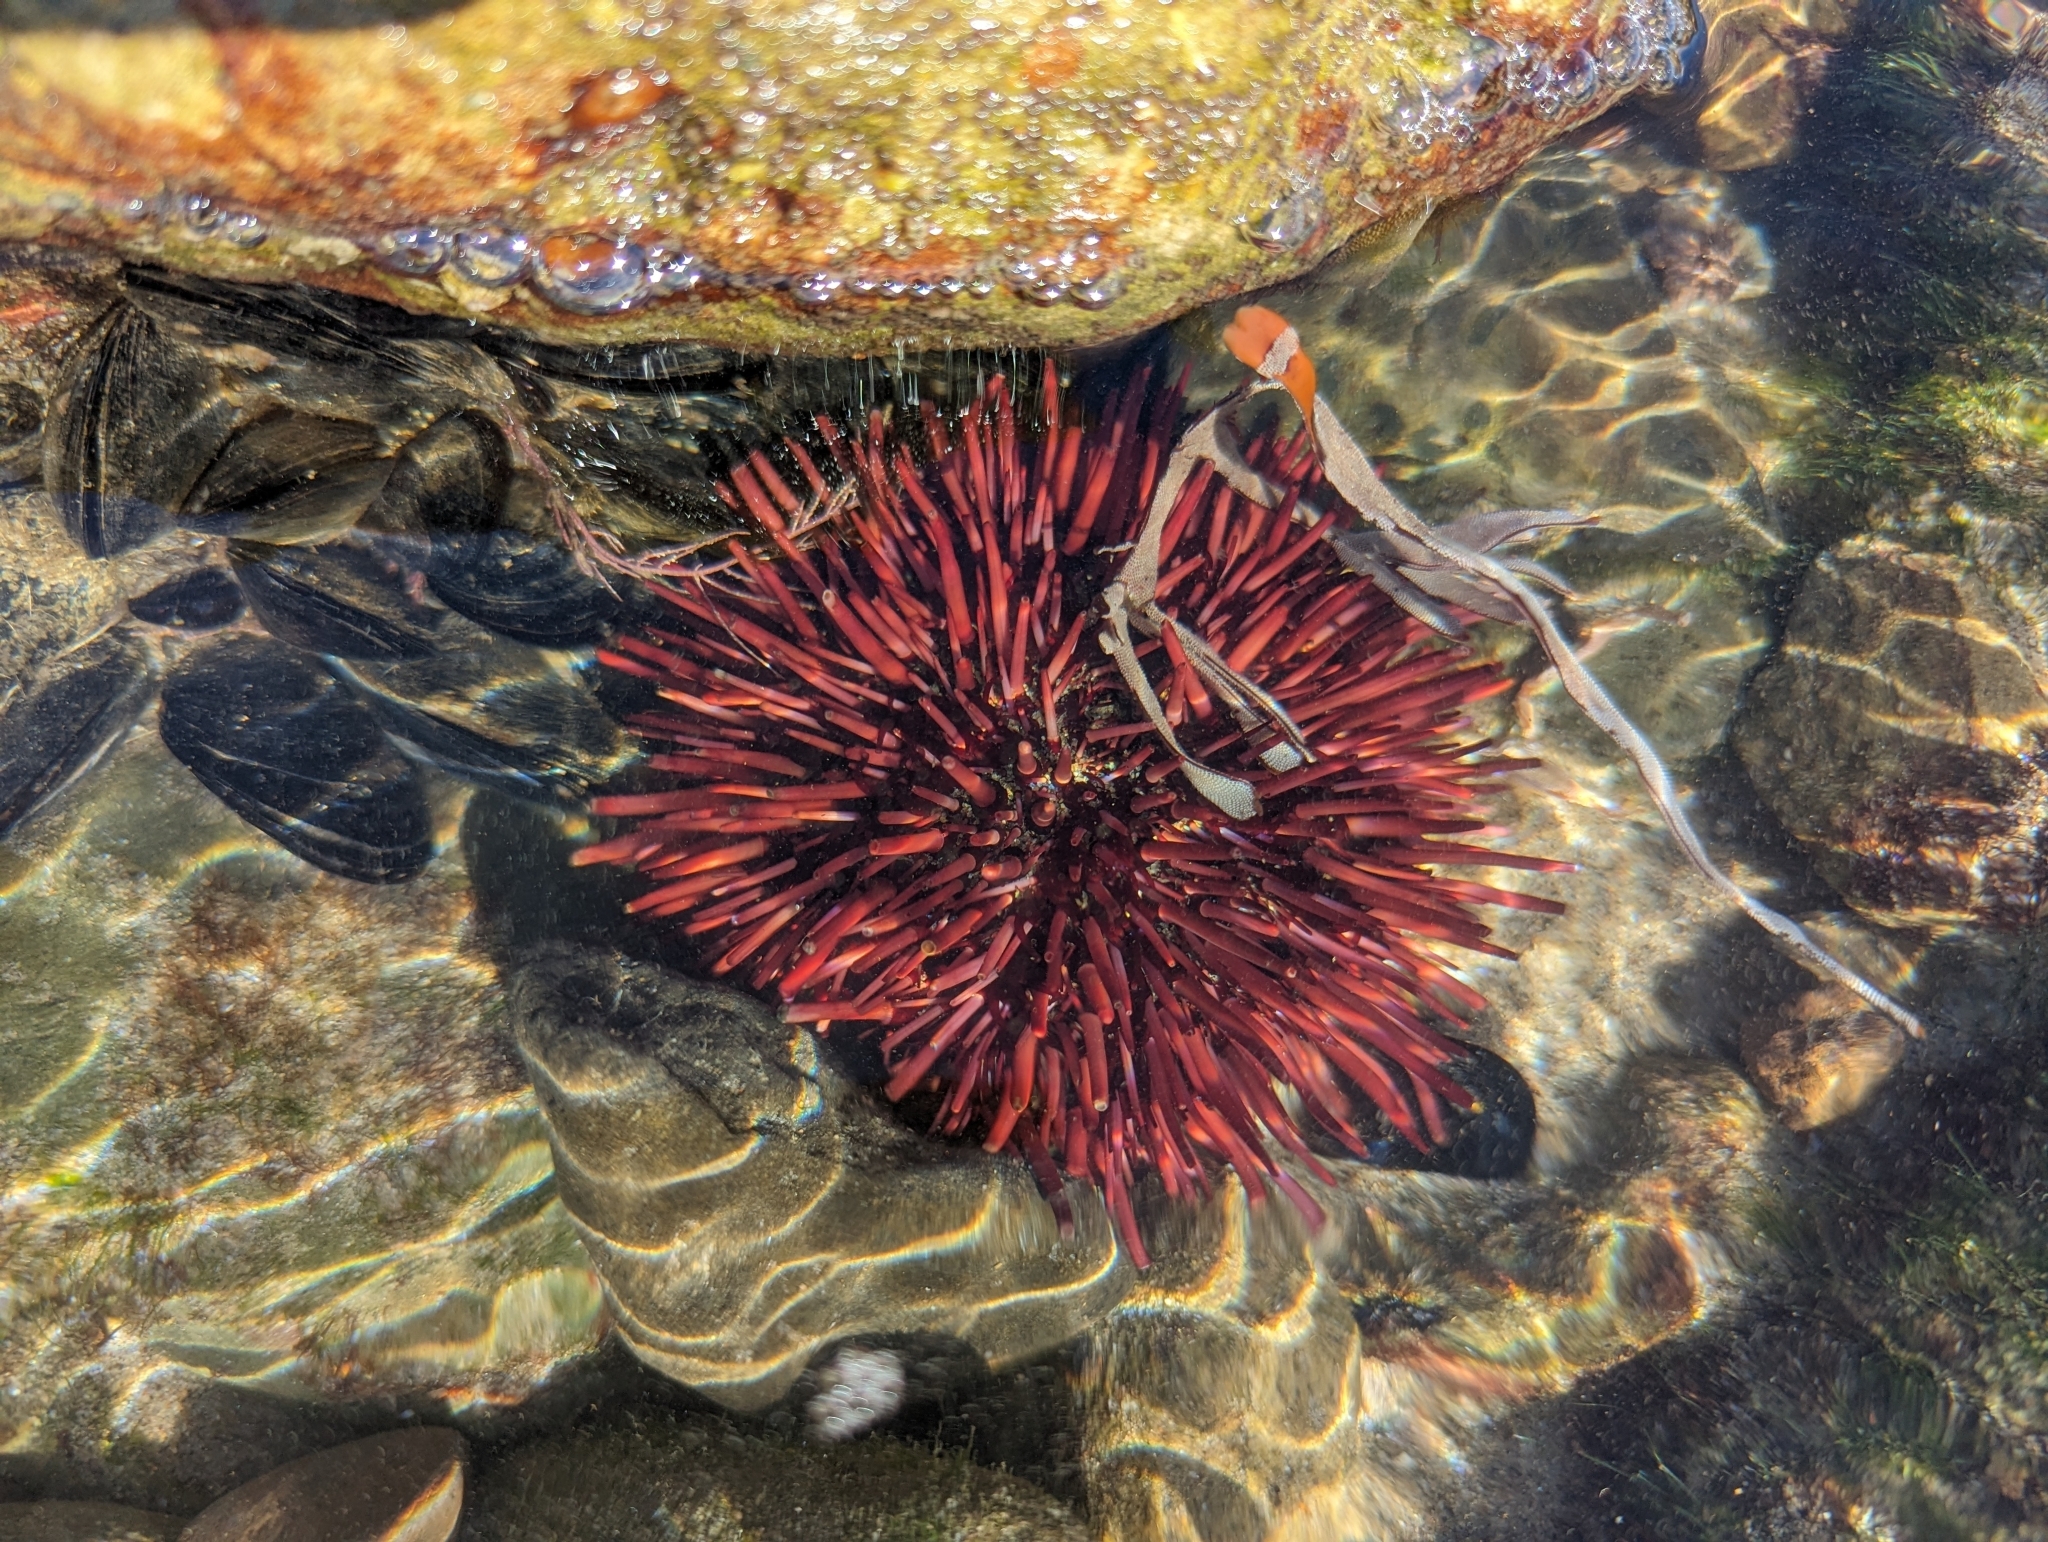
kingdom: Animalia
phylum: Echinodermata
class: Echinoidea
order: Camarodonta
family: Strongylocentrotidae
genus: Mesocentrotus
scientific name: Mesocentrotus franciscanus
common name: Red sea urchin
